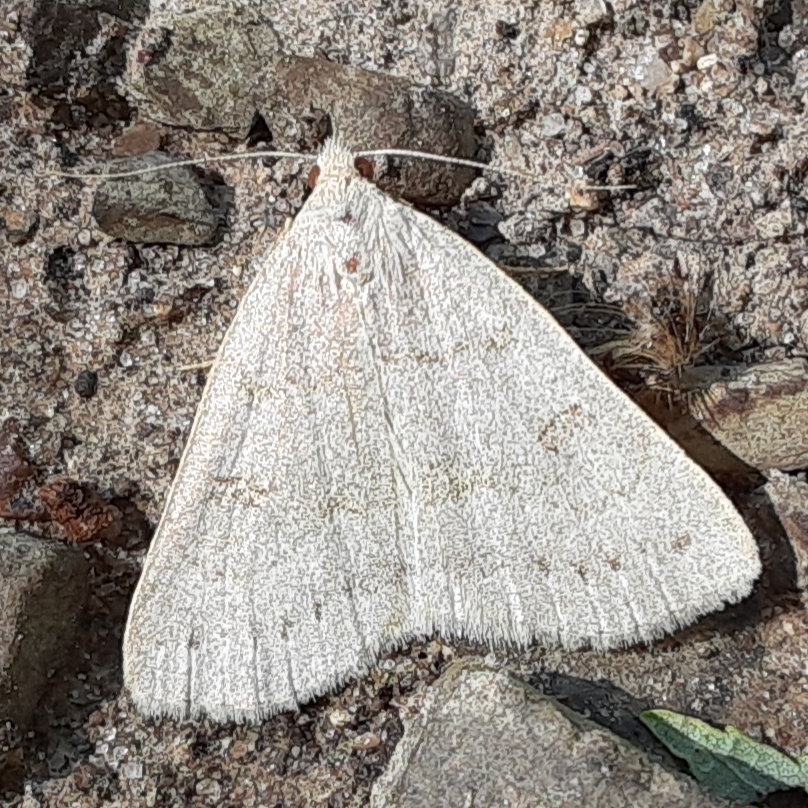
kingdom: Animalia
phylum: Arthropoda
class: Insecta
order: Lepidoptera
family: Erebidae
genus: Macrochilo
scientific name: Macrochilo morbidalis
